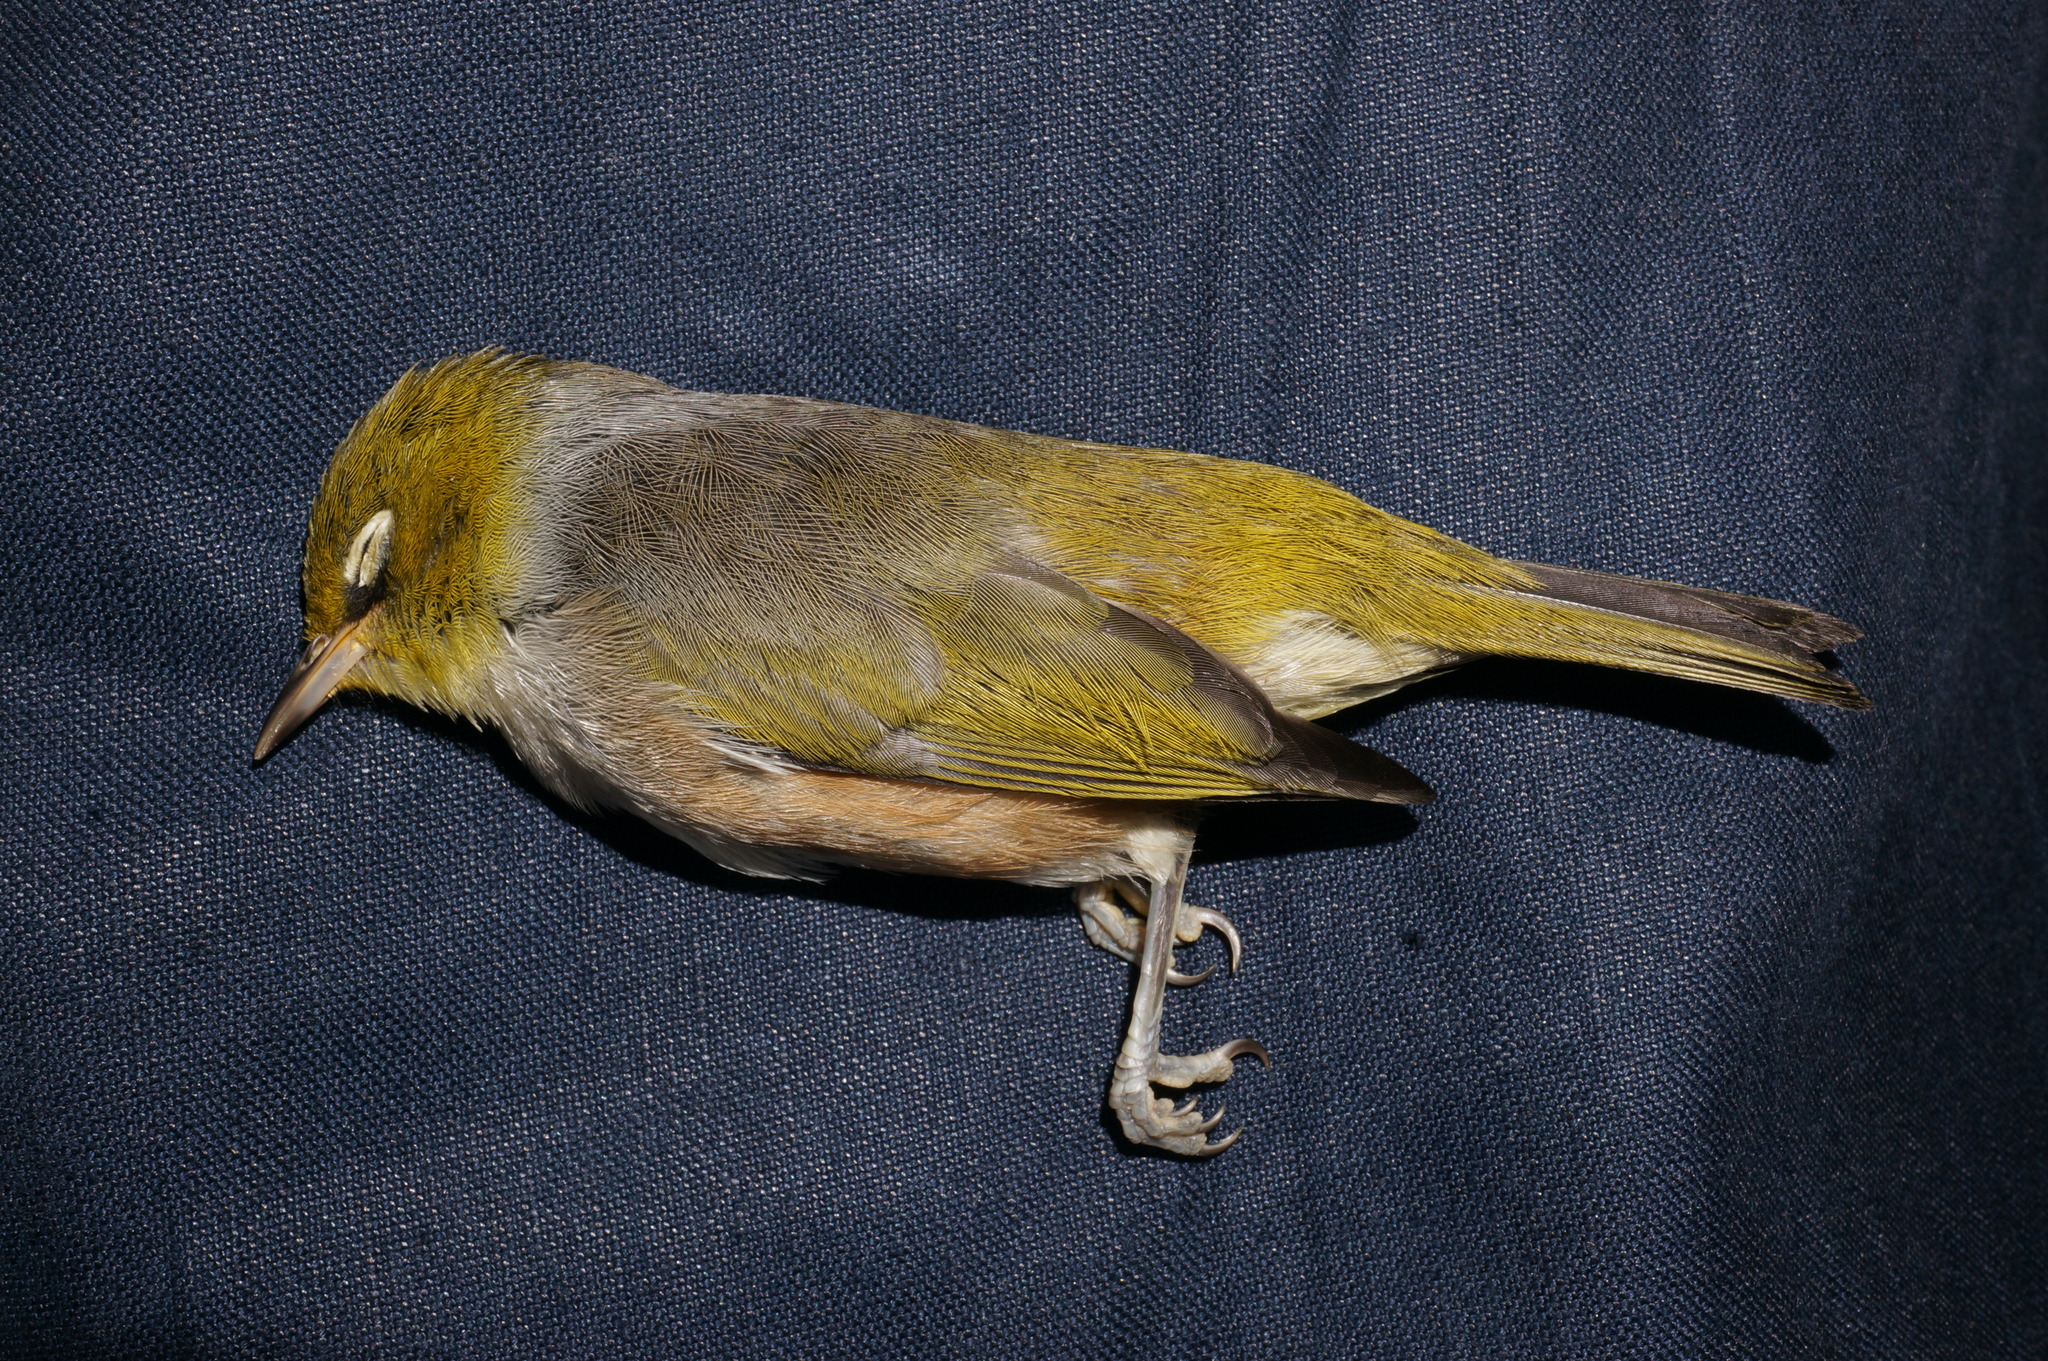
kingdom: Animalia
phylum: Chordata
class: Aves
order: Passeriformes
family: Zosteropidae
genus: Zosterops
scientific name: Zosterops lateralis
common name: Silvereye
